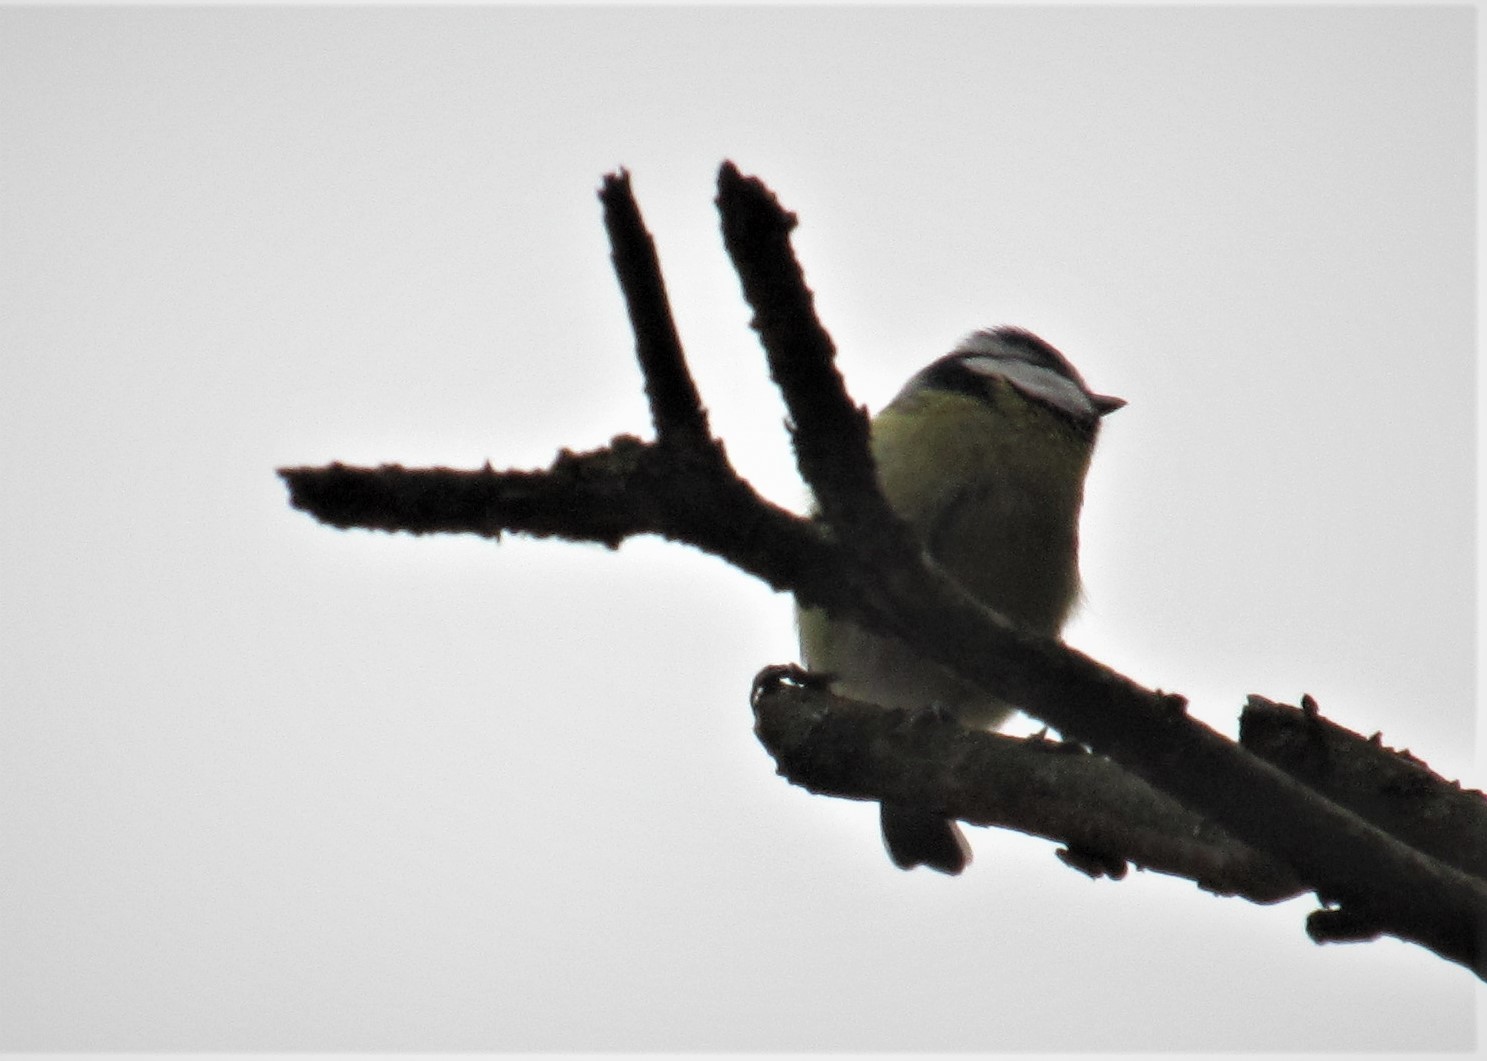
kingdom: Animalia
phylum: Chordata
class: Aves
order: Passeriformes
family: Paridae
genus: Cyanistes
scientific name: Cyanistes caeruleus
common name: Eurasian blue tit
